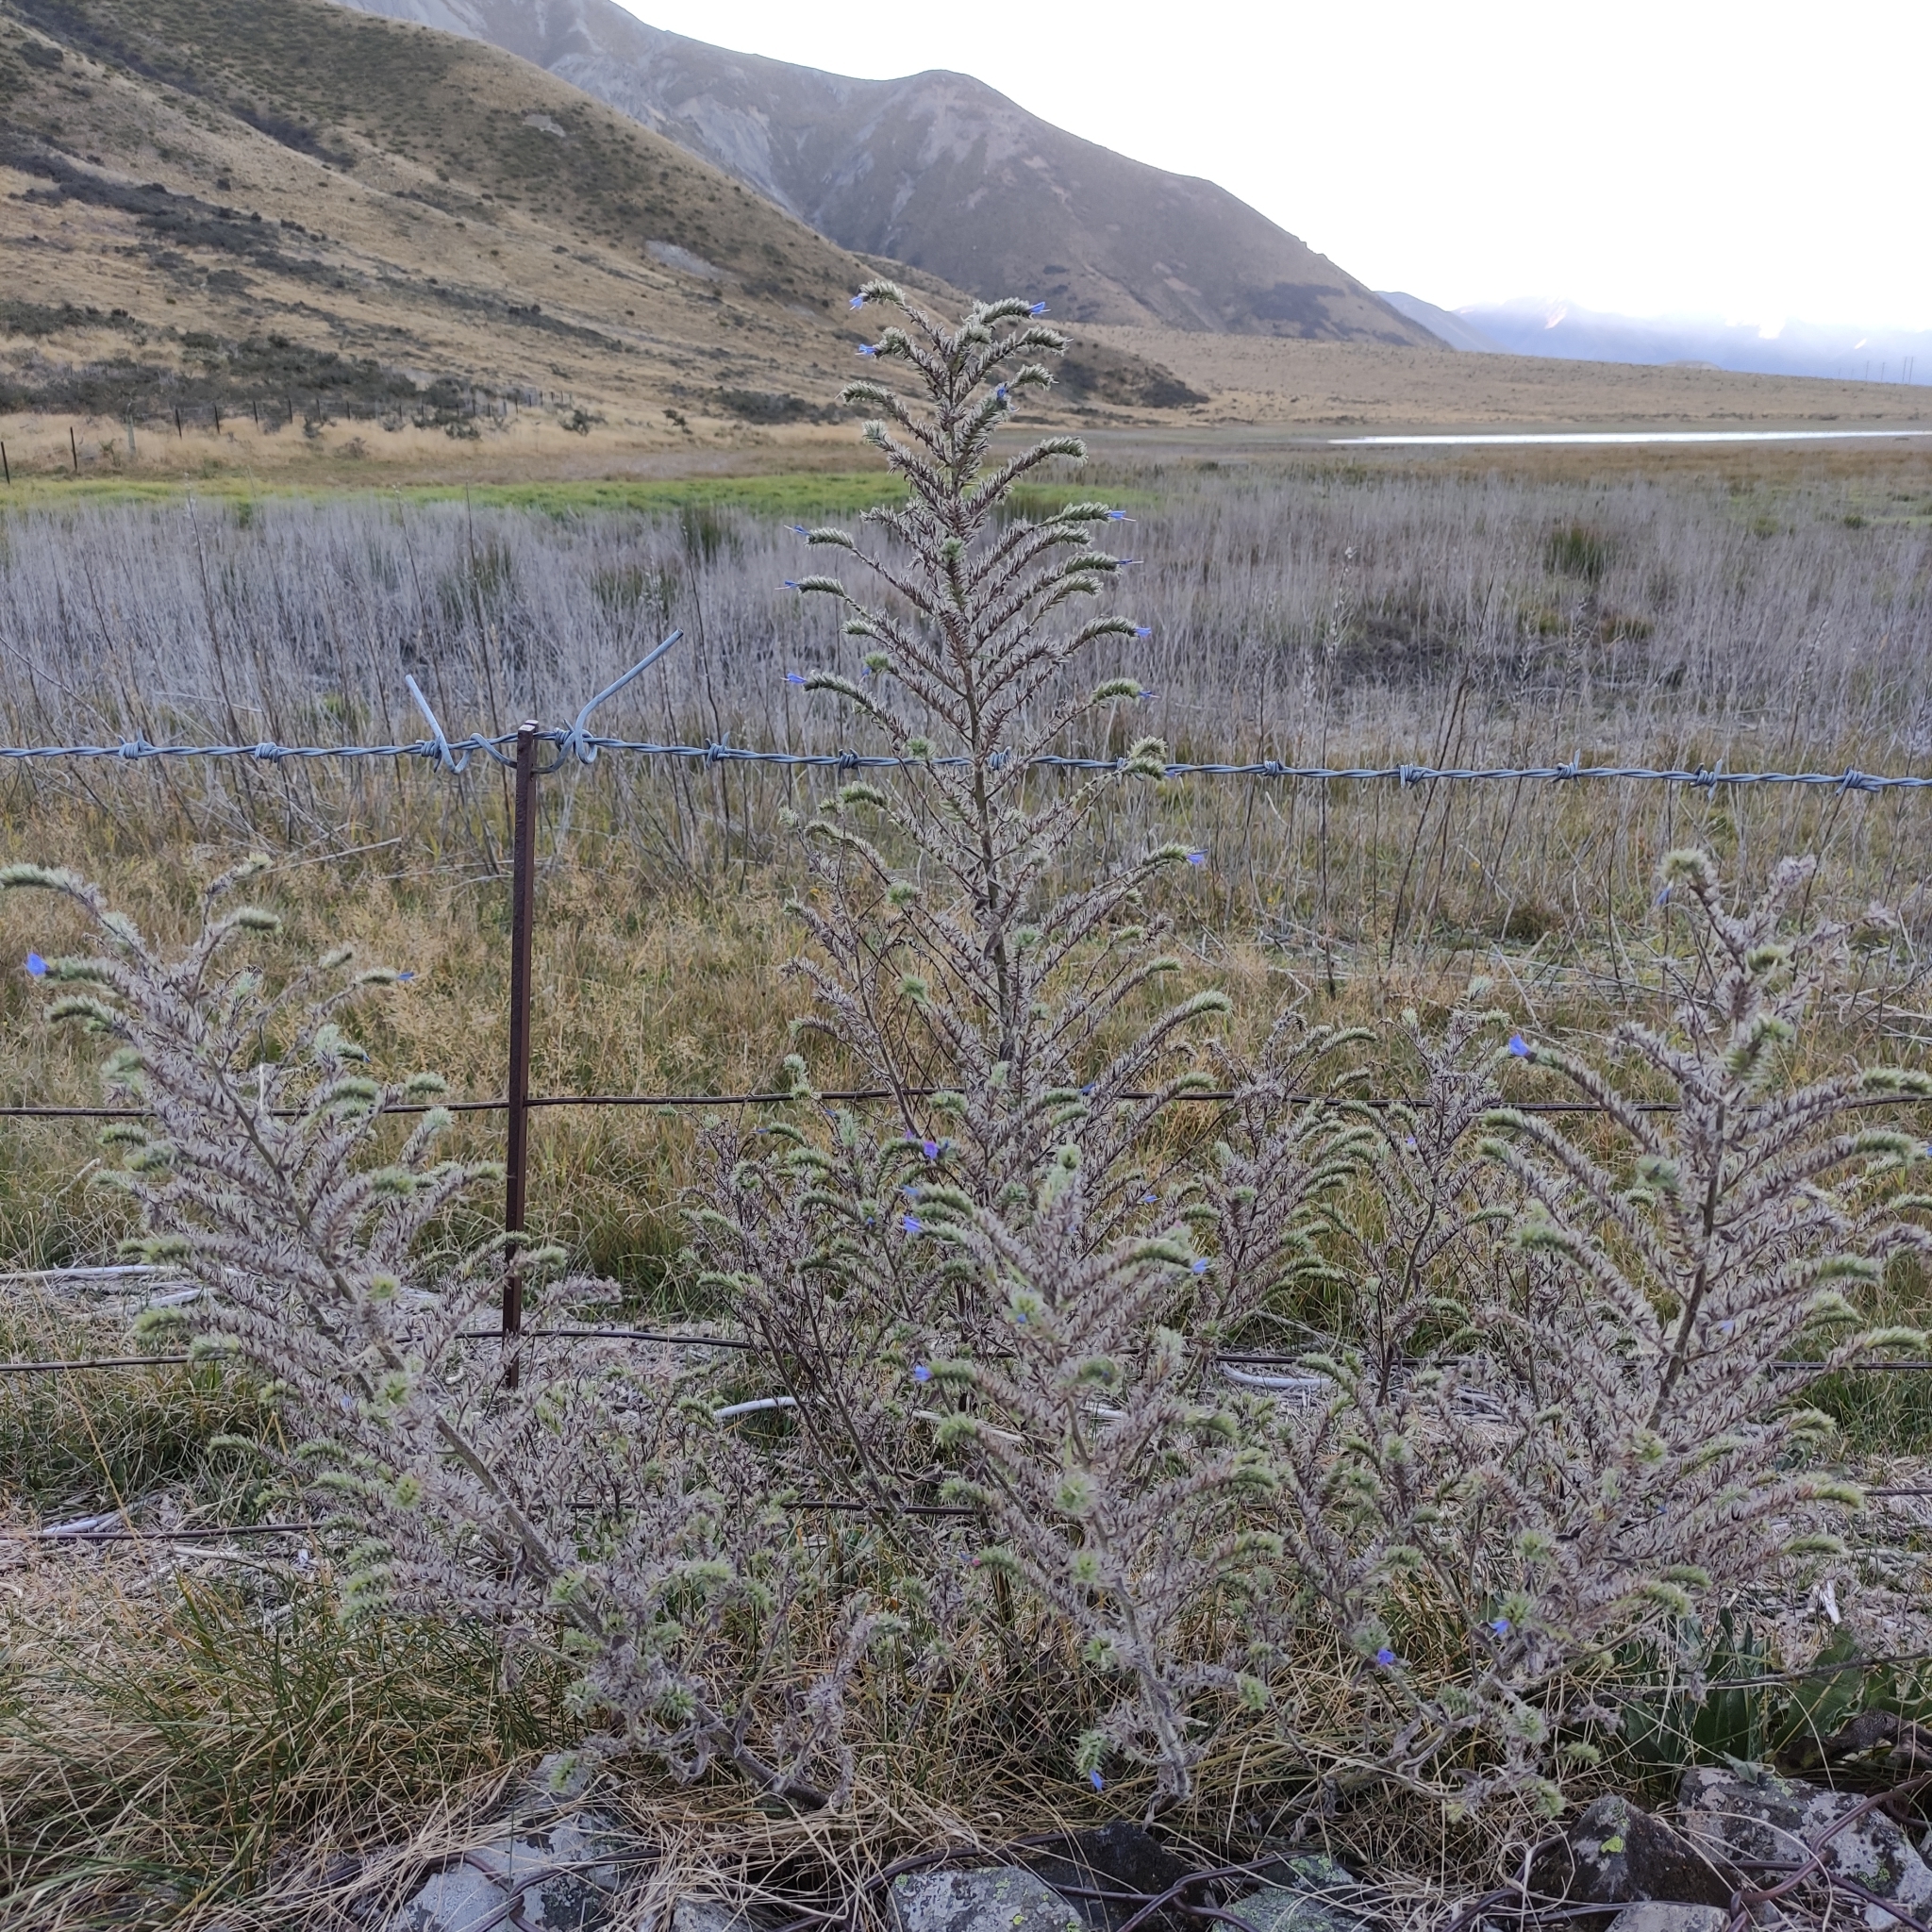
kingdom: Plantae
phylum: Tracheophyta
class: Magnoliopsida
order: Boraginales
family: Boraginaceae
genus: Echium
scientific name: Echium vulgare
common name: Common viper's bugloss
